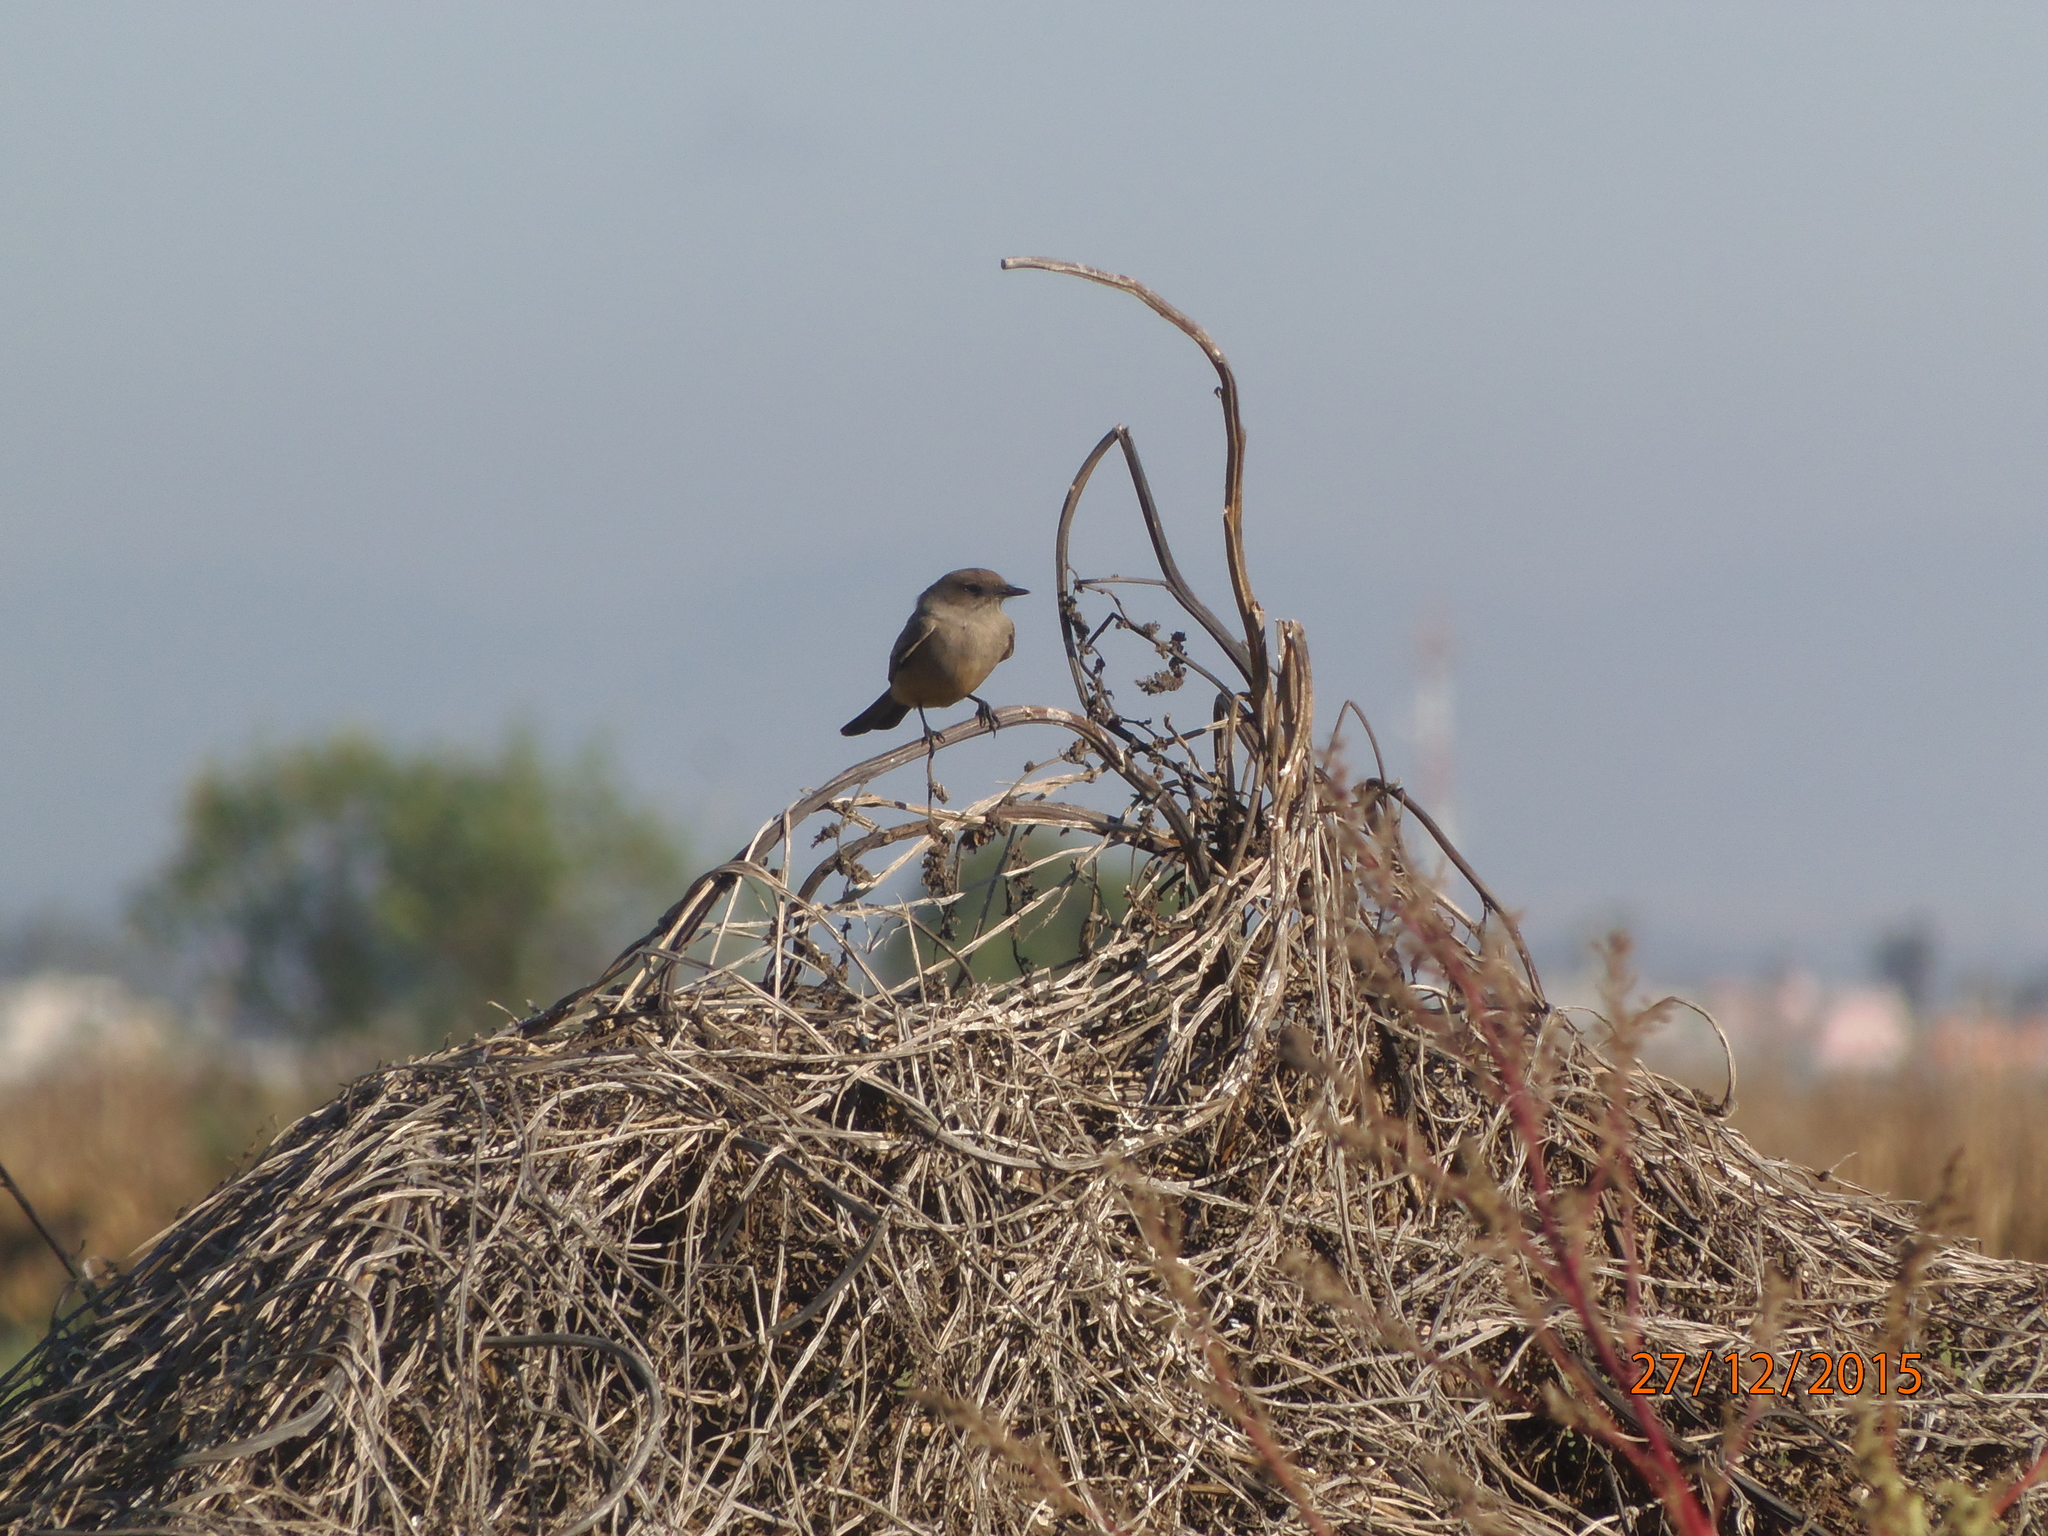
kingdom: Animalia
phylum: Chordata
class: Aves
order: Passeriformes
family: Tyrannidae
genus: Sayornis
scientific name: Sayornis saya
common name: Say's phoebe
